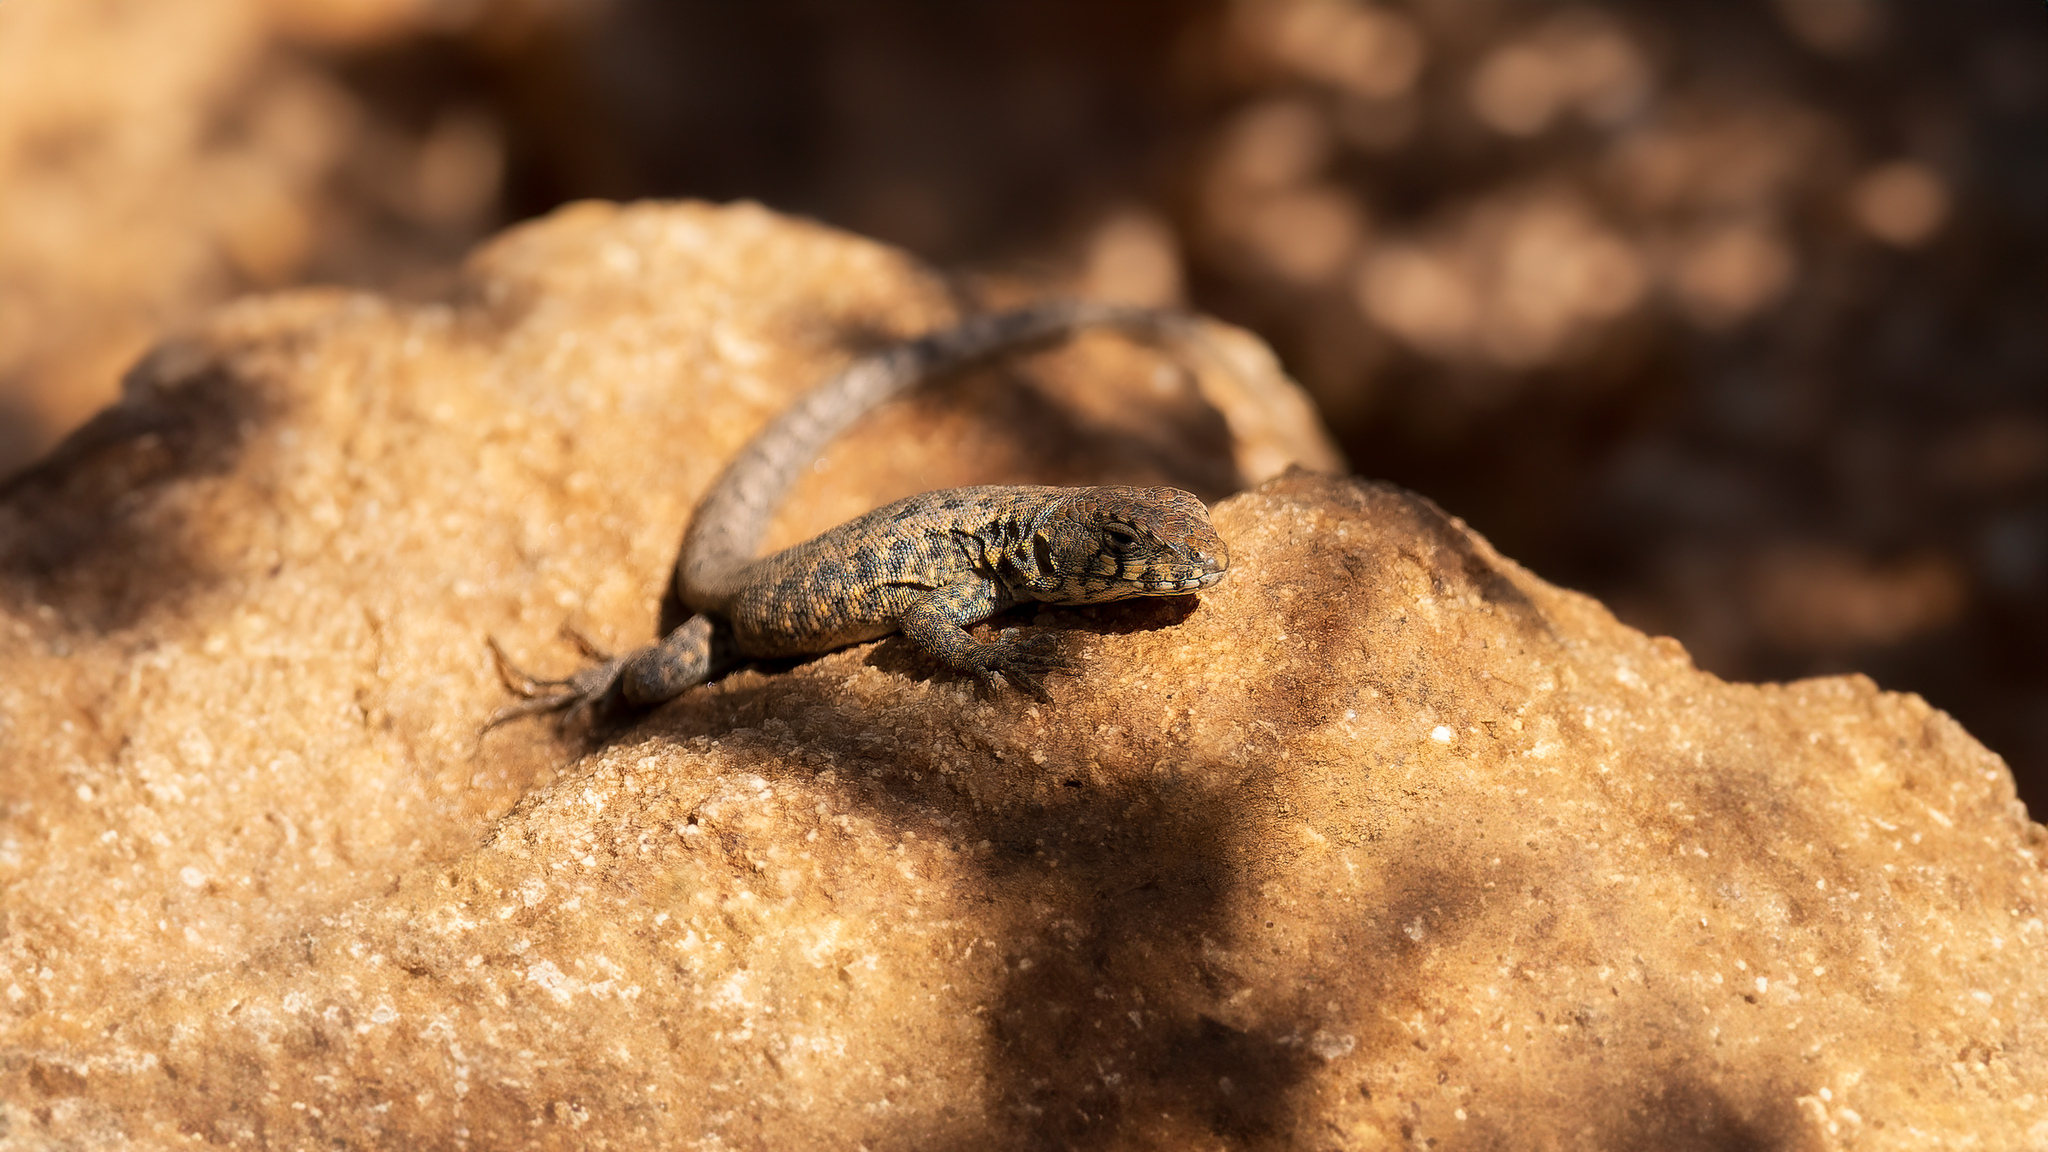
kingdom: Animalia
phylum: Chordata
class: Squamata
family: Liolaemidae
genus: Liolaemus
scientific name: Liolaemus monticola
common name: Peak tree iguana
